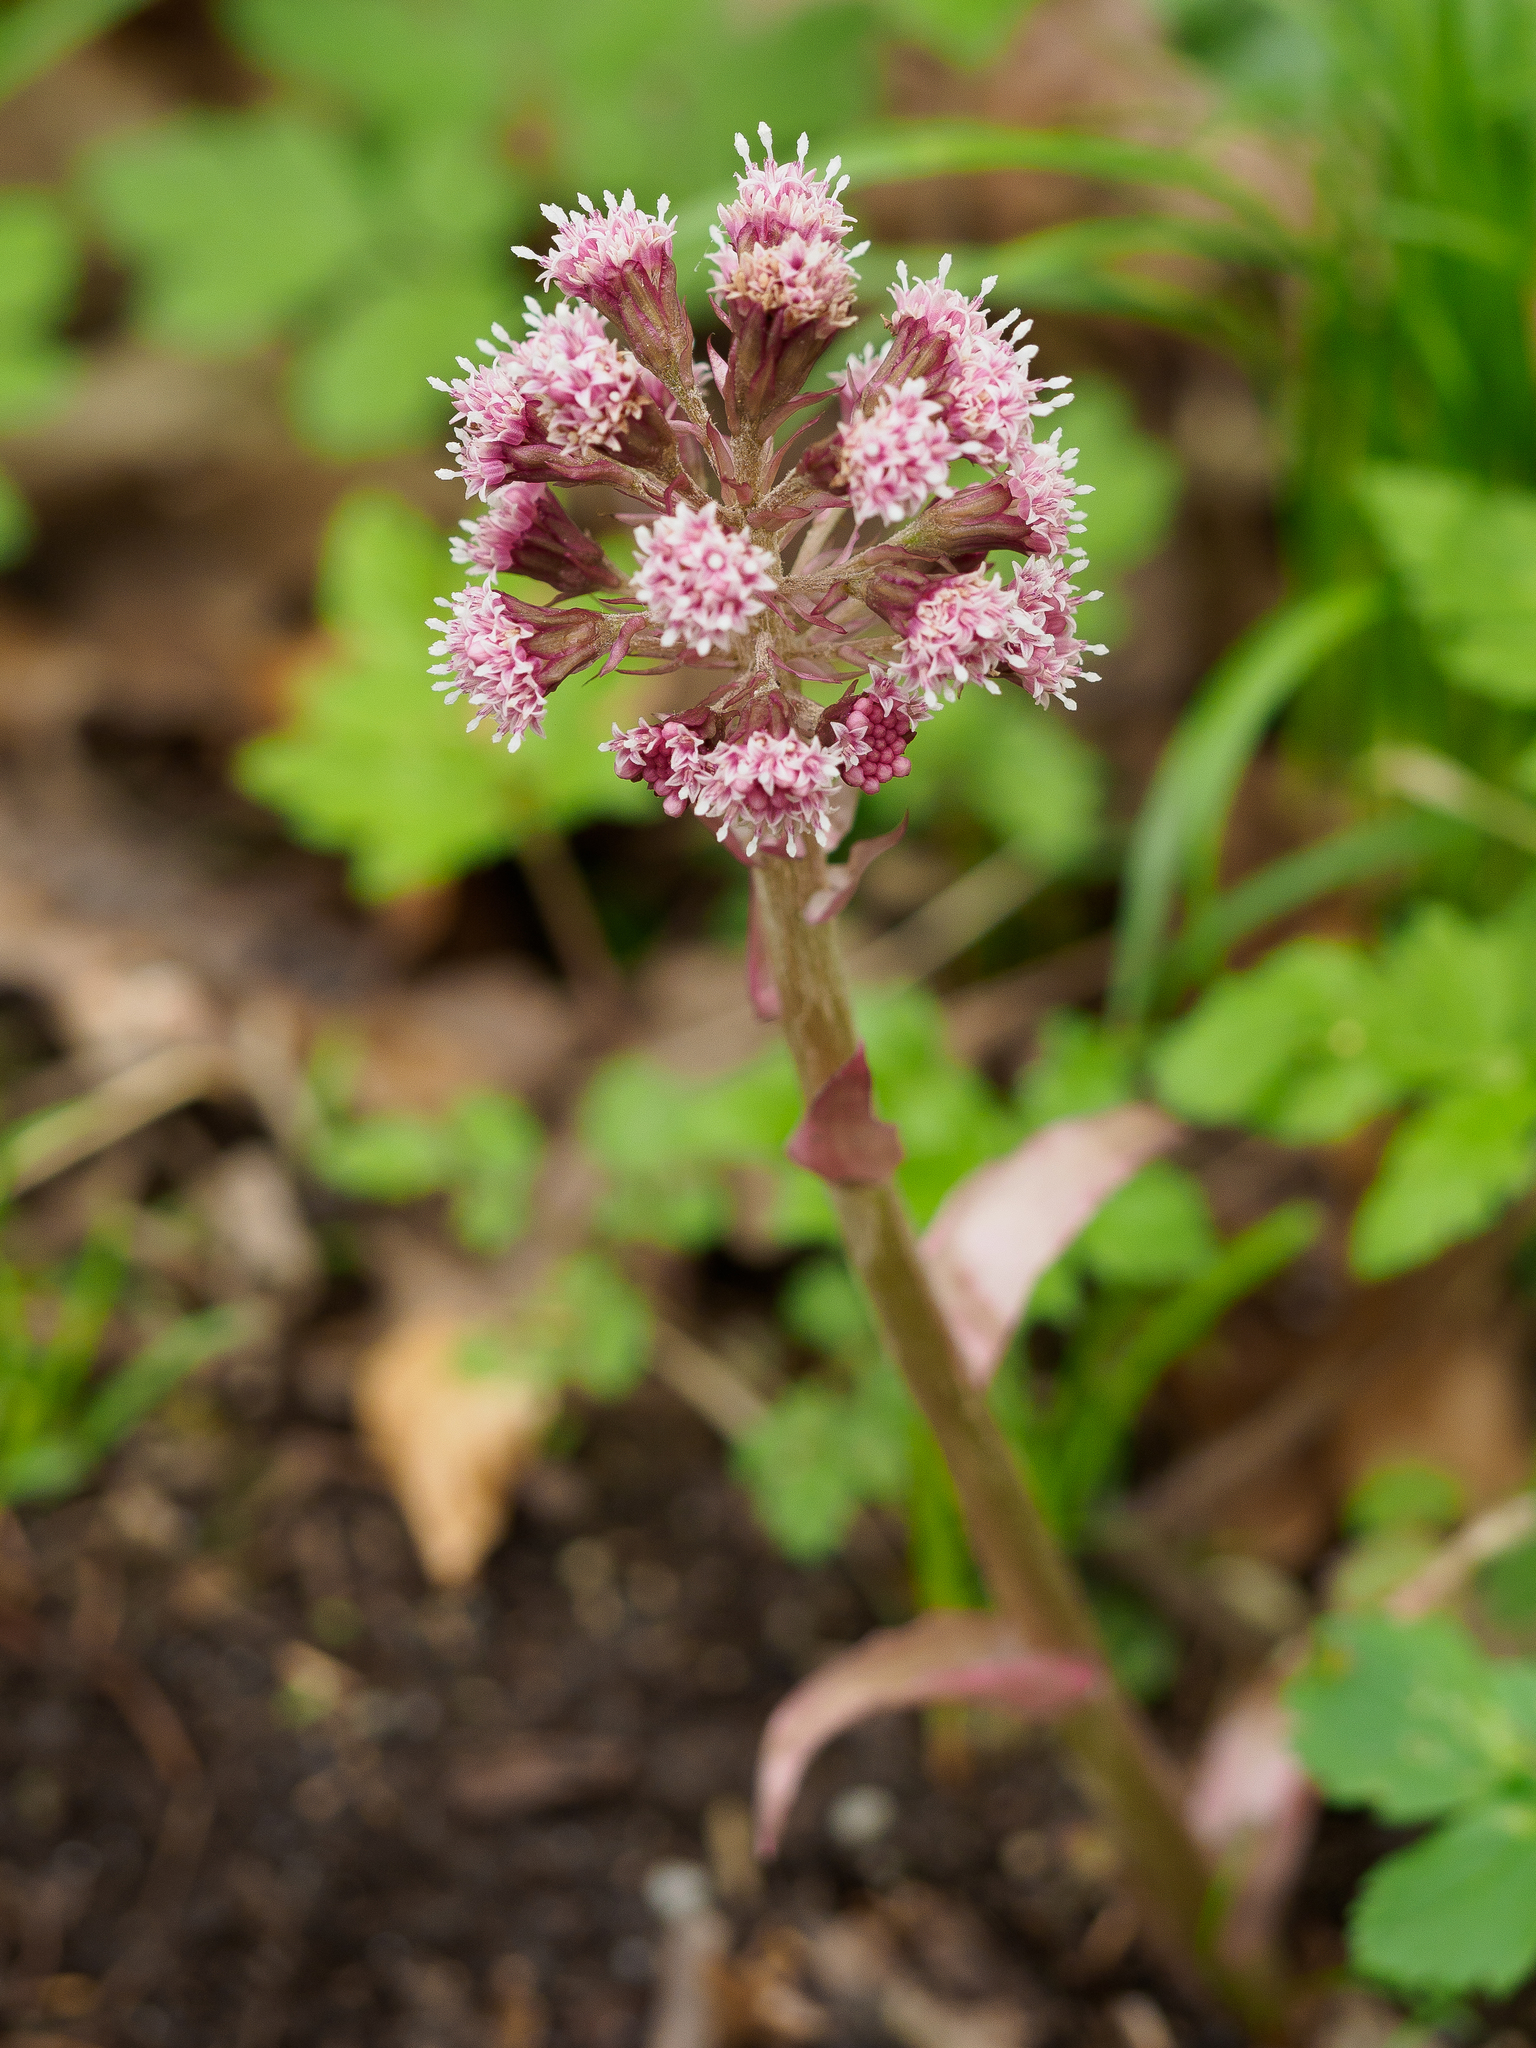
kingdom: Plantae
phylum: Tracheophyta
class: Magnoliopsida
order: Asterales
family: Asteraceae
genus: Petasites
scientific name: Petasites hybridus
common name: Butterbur
